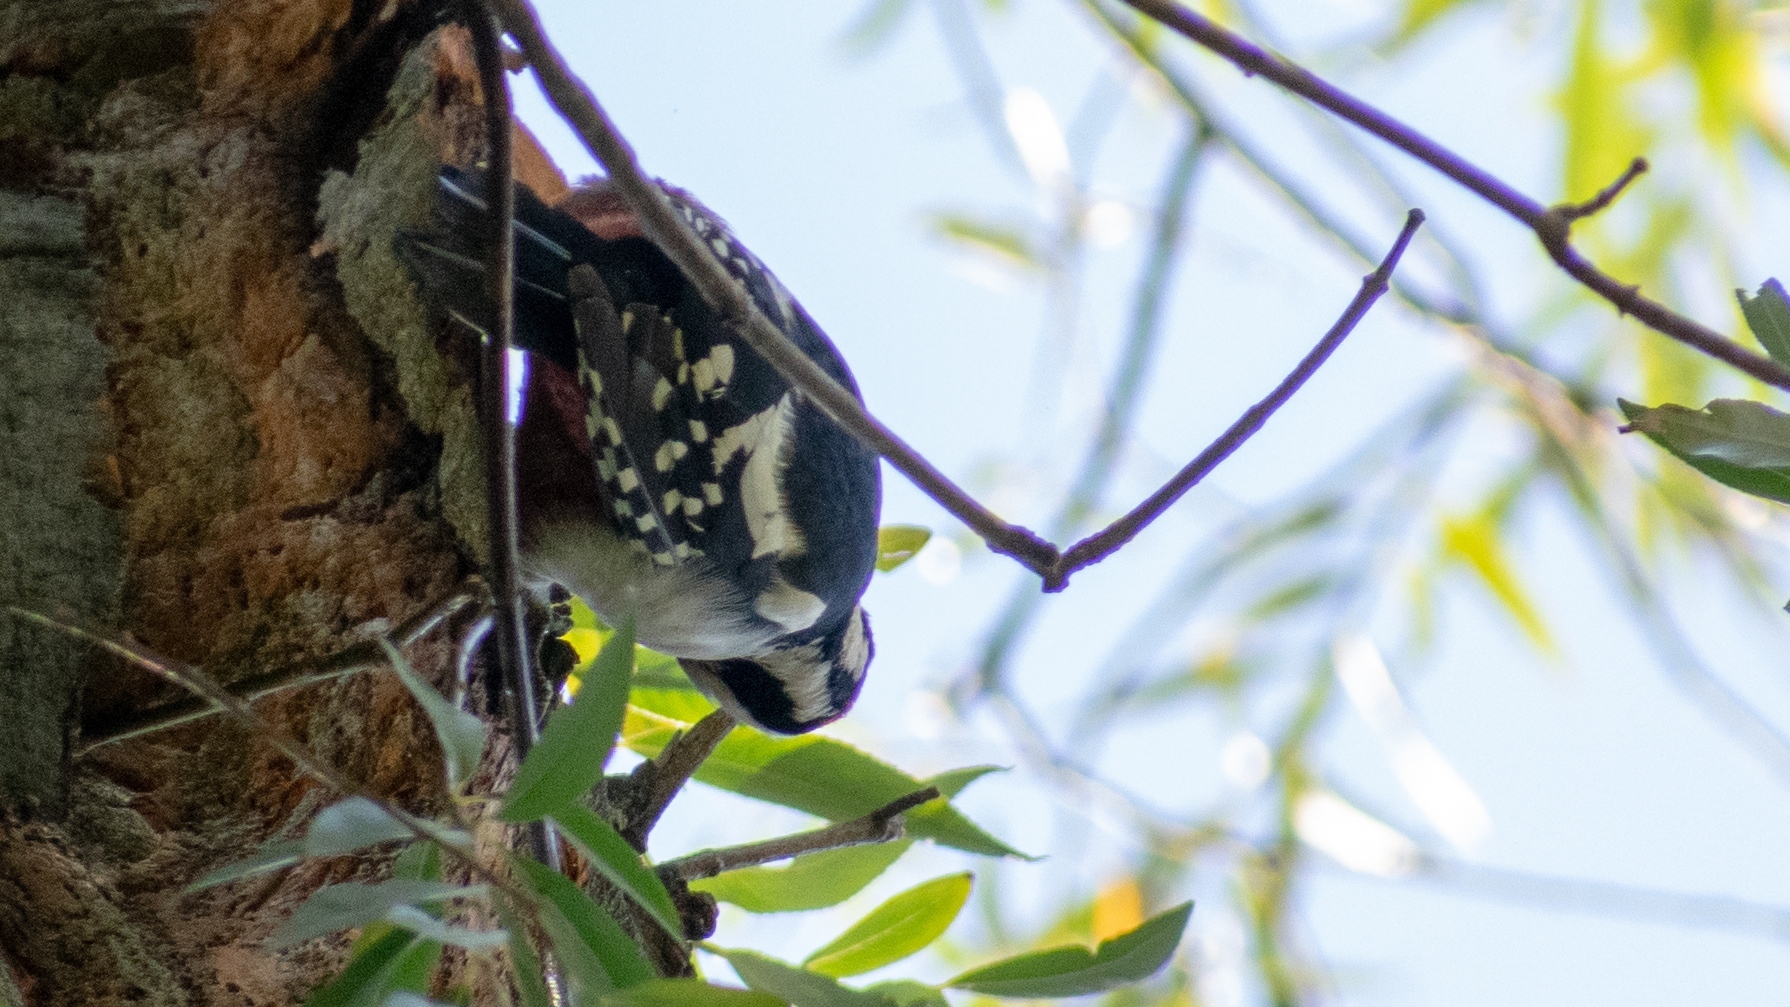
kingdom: Animalia
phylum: Chordata
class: Aves
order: Piciformes
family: Picidae
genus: Dendrocopos
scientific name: Dendrocopos major
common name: Great spotted woodpecker
